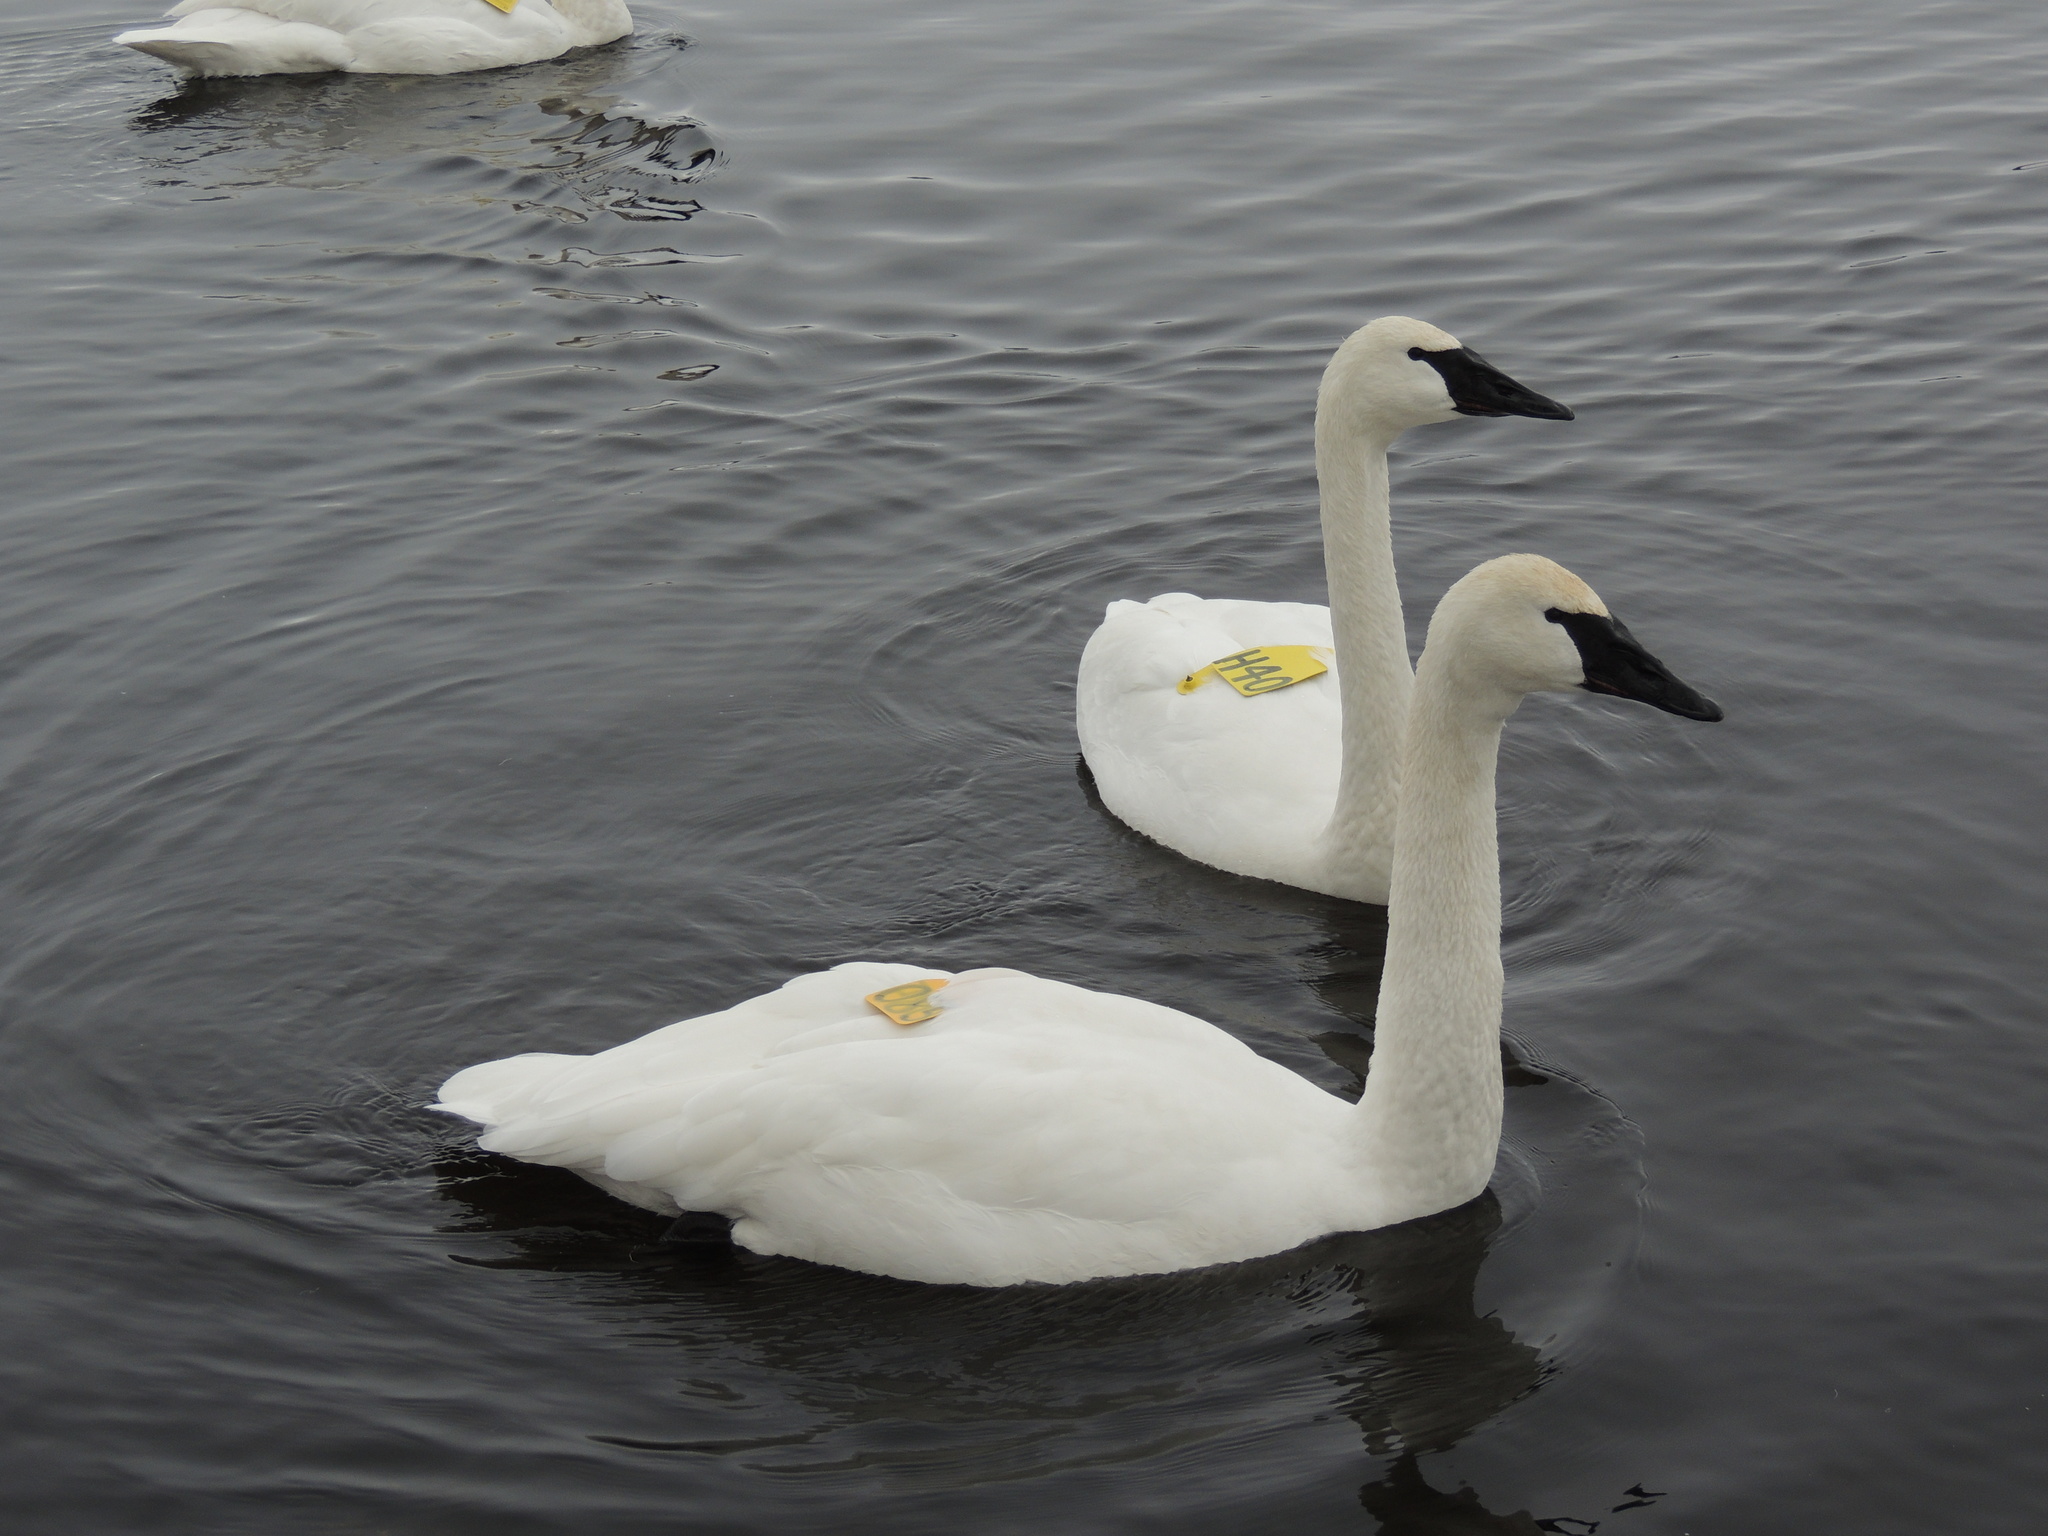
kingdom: Animalia
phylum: Chordata
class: Aves
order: Anseriformes
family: Anatidae
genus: Cygnus
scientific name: Cygnus buccinator
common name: Trumpeter swan
